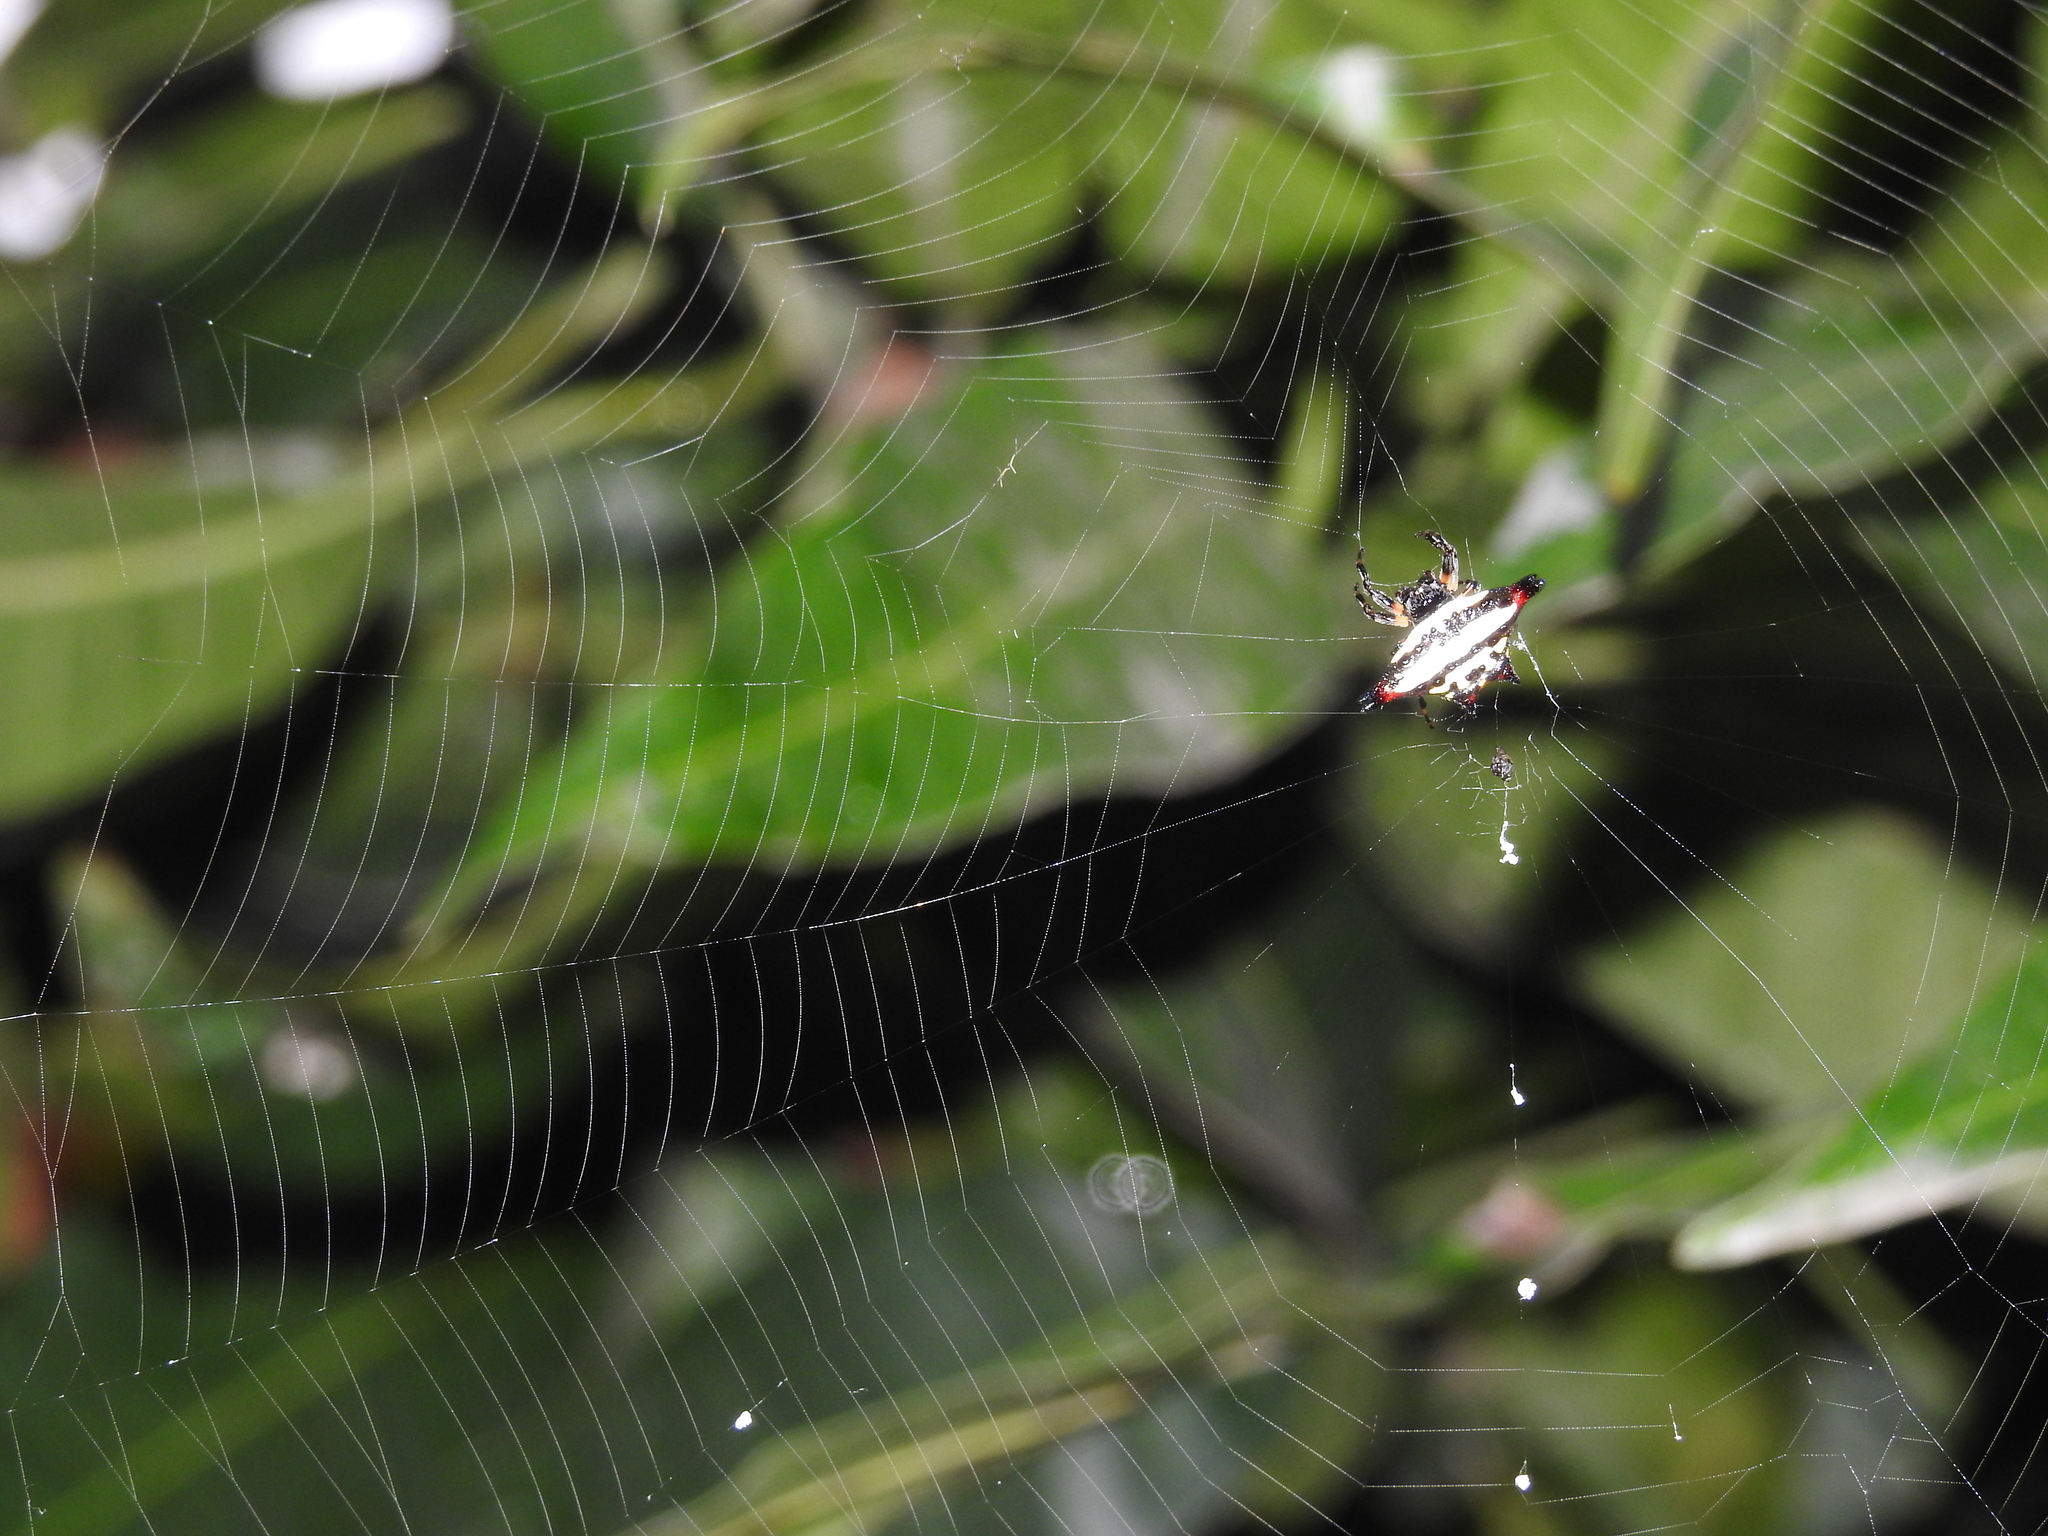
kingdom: Animalia
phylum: Arthropoda
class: Arachnida
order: Araneae
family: Araneidae
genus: Gasteracantha
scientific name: Gasteracantha geminata
